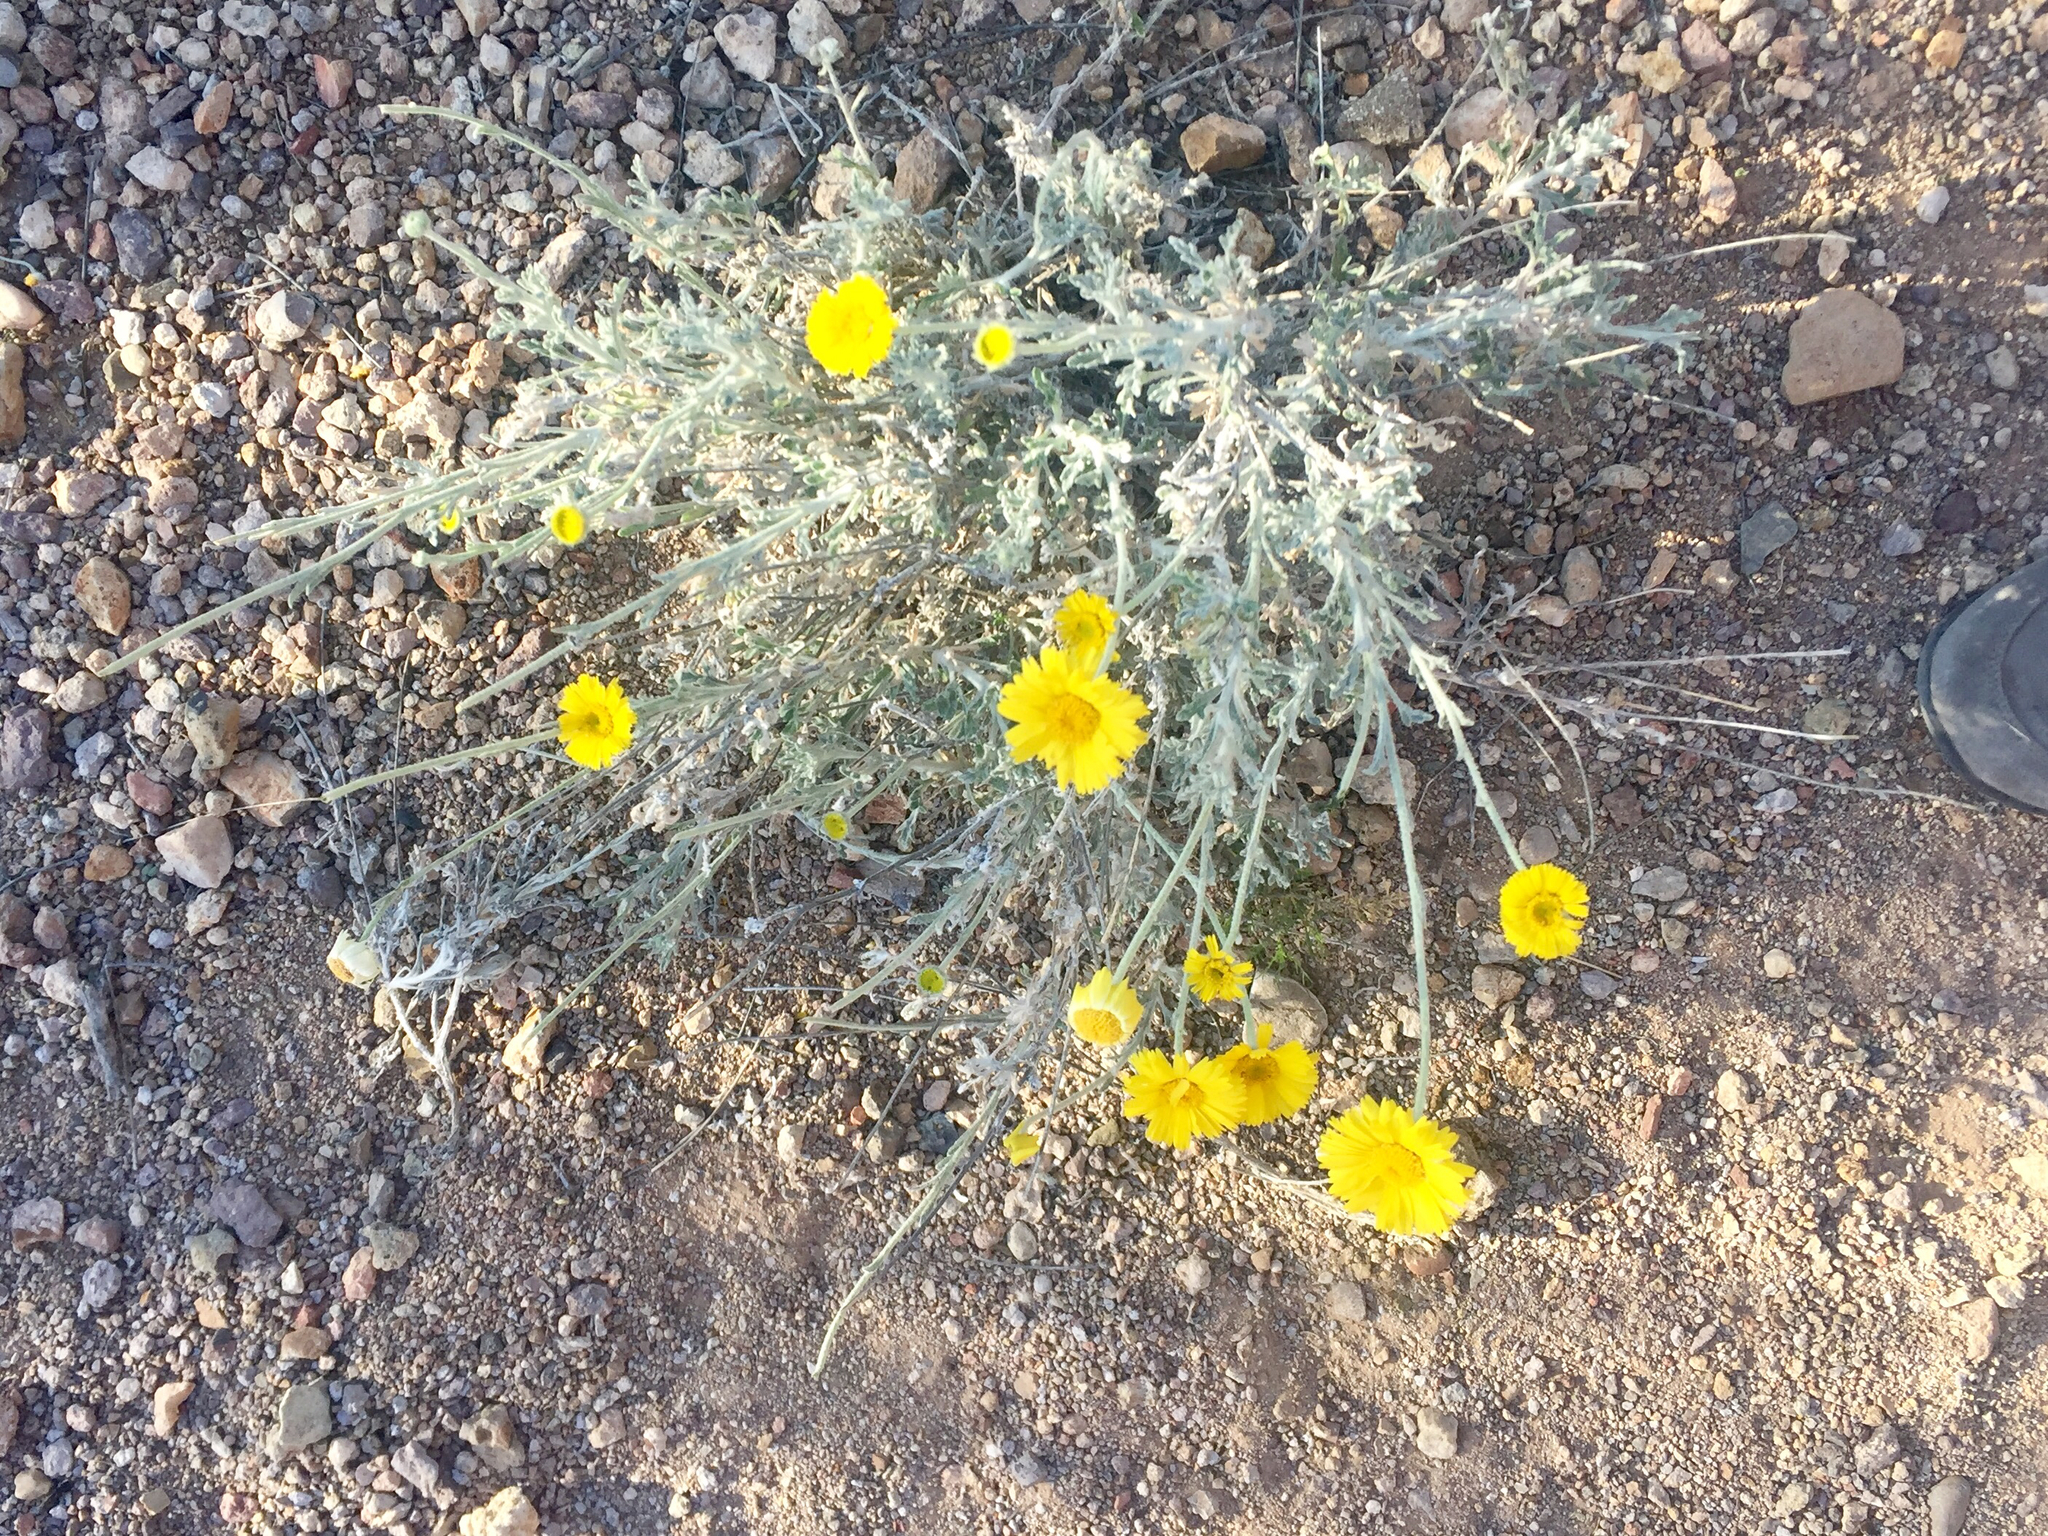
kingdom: Plantae
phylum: Tracheophyta
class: Magnoliopsida
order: Asterales
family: Asteraceae
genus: Baileya
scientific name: Baileya multiradiata
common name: Desert-marigold
